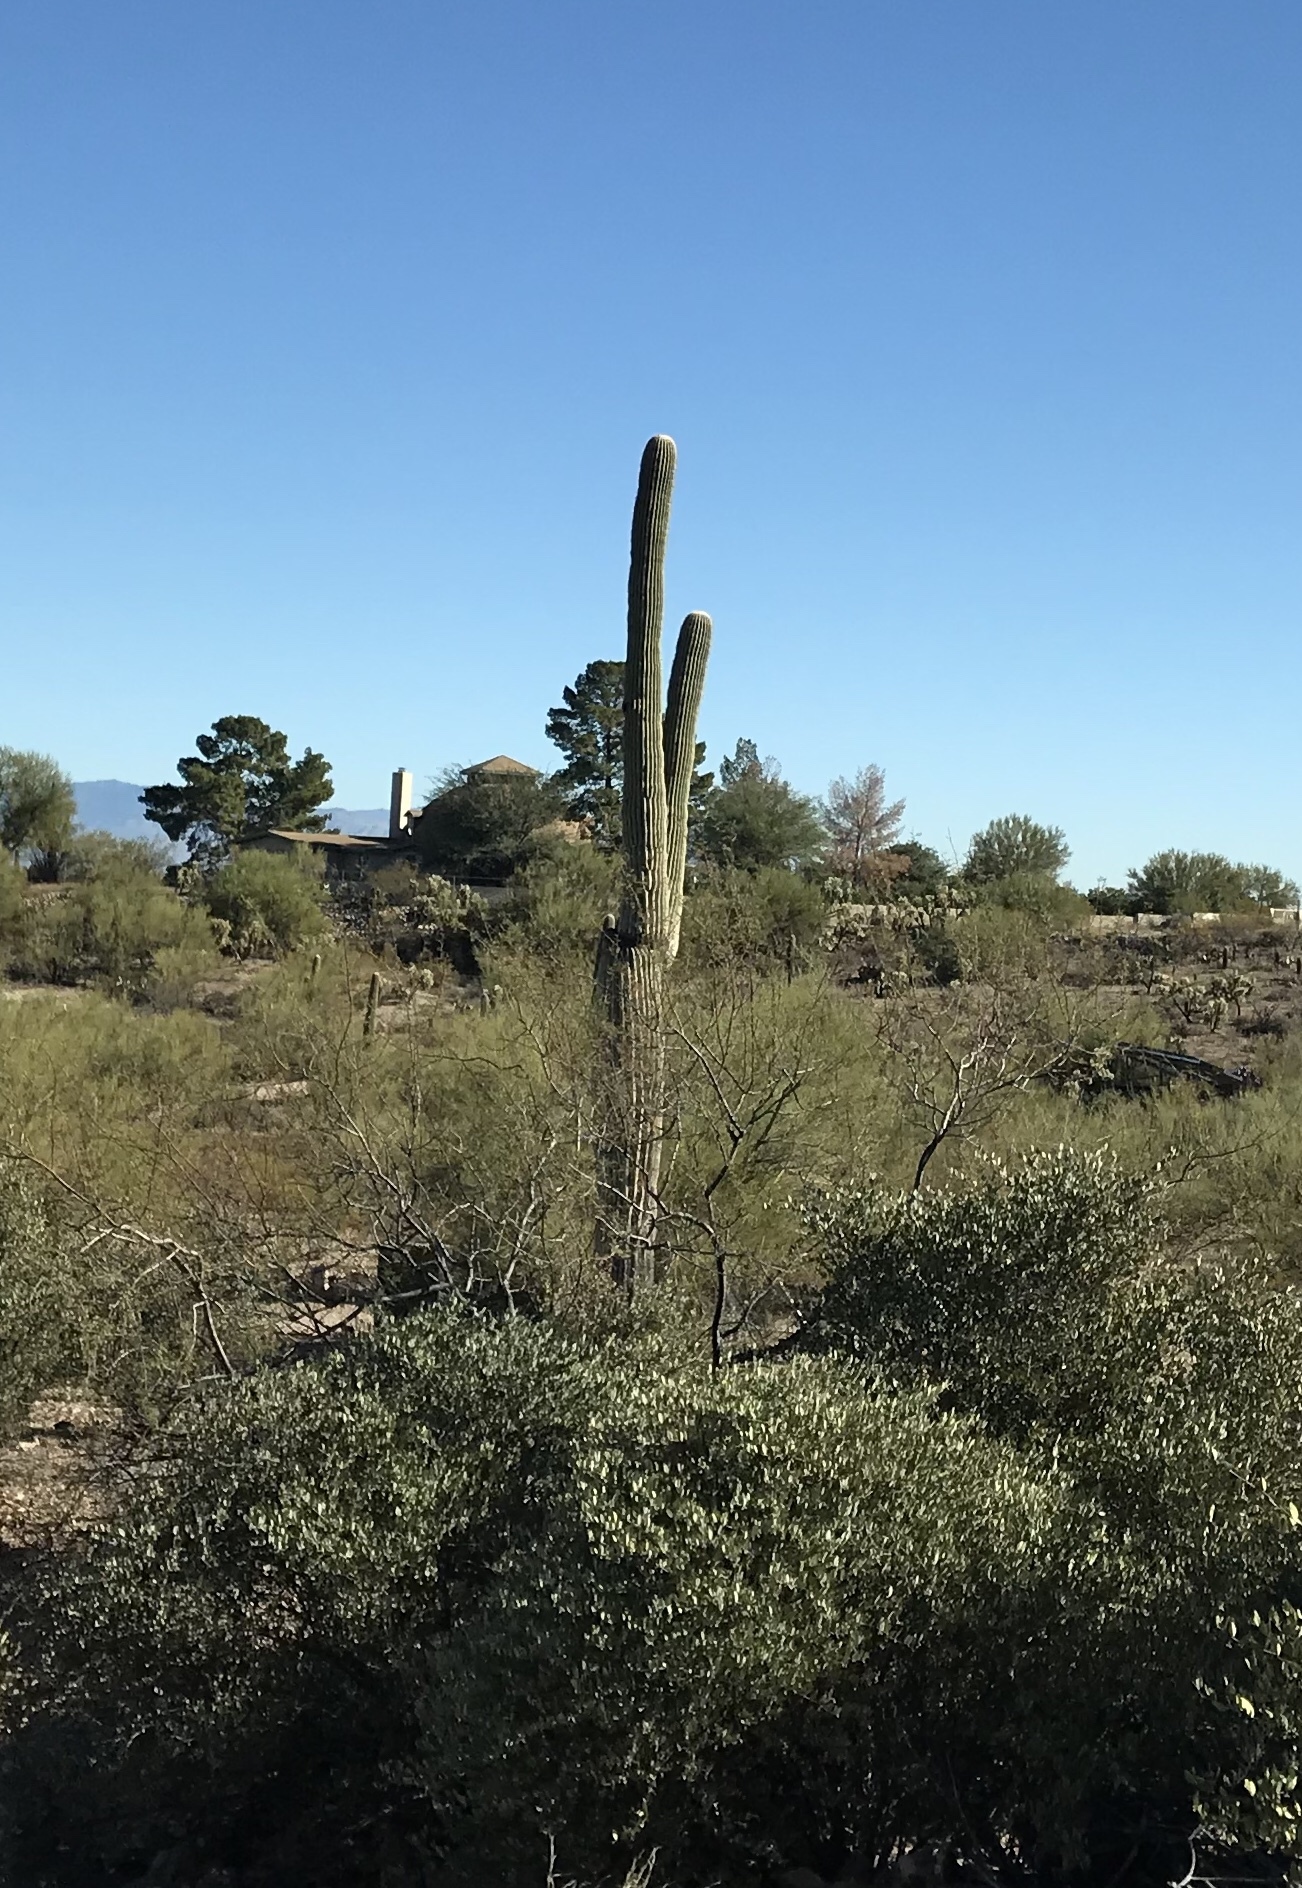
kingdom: Plantae
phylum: Tracheophyta
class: Magnoliopsida
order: Caryophyllales
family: Cactaceae
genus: Carnegiea
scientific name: Carnegiea gigantea
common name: Saguaro
